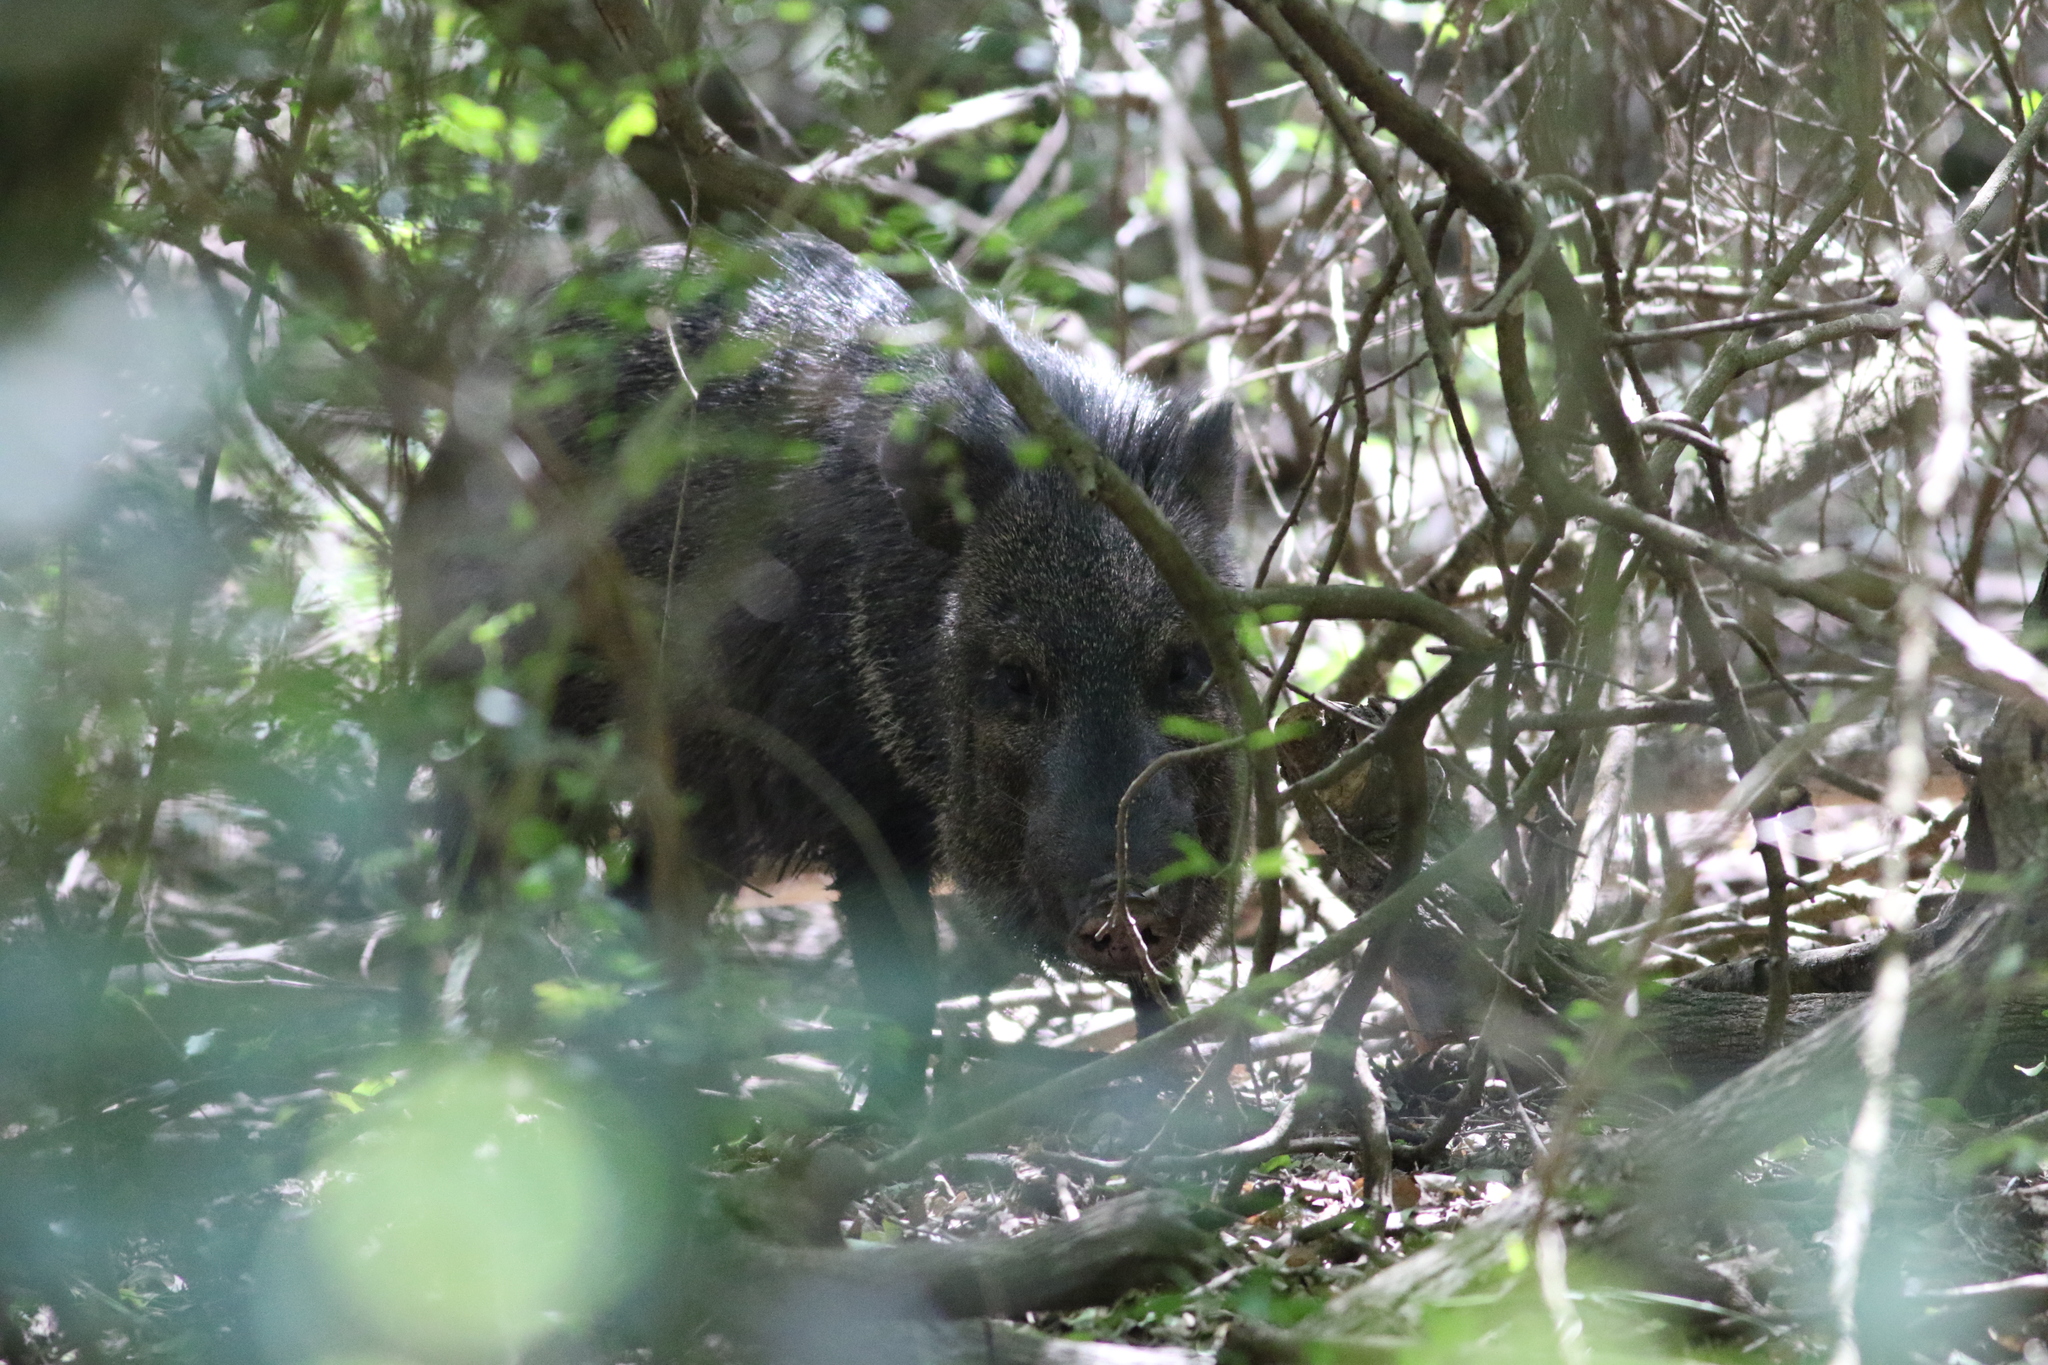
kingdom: Animalia
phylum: Chordata
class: Mammalia
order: Artiodactyla
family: Tayassuidae
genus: Pecari
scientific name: Pecari tajacu
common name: Collared peccary
